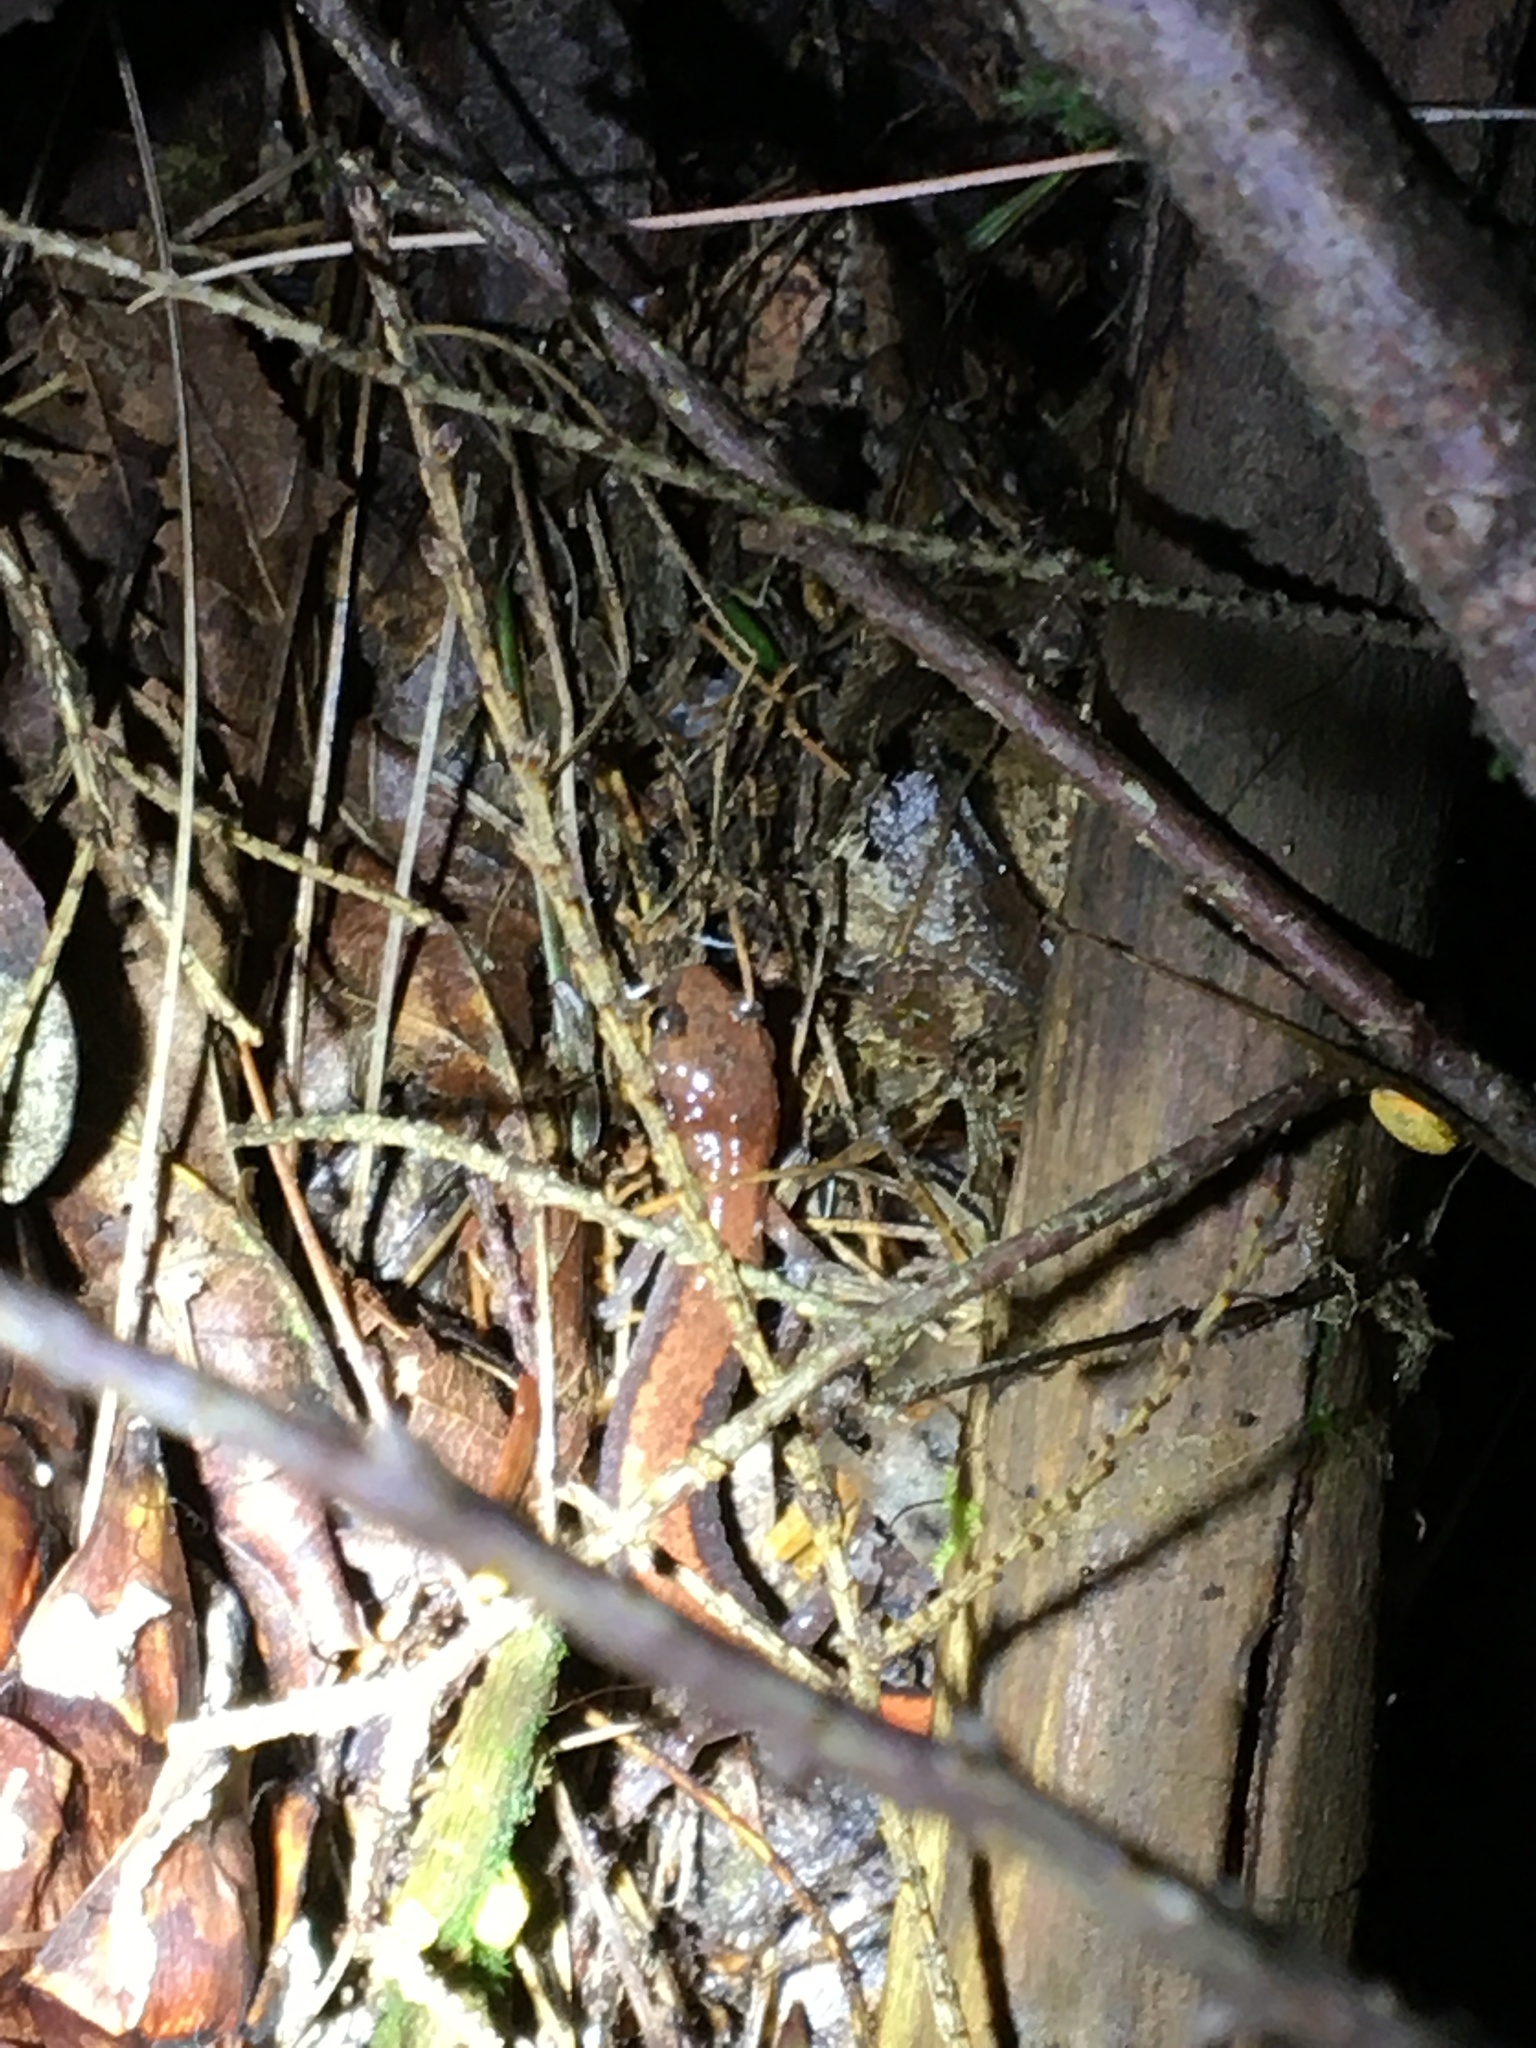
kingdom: Animalia
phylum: Chordata
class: Amphibia
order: Caudata
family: Plethodontidae
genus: Plethodon
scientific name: Plethodon cinereus
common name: Redback salamander
